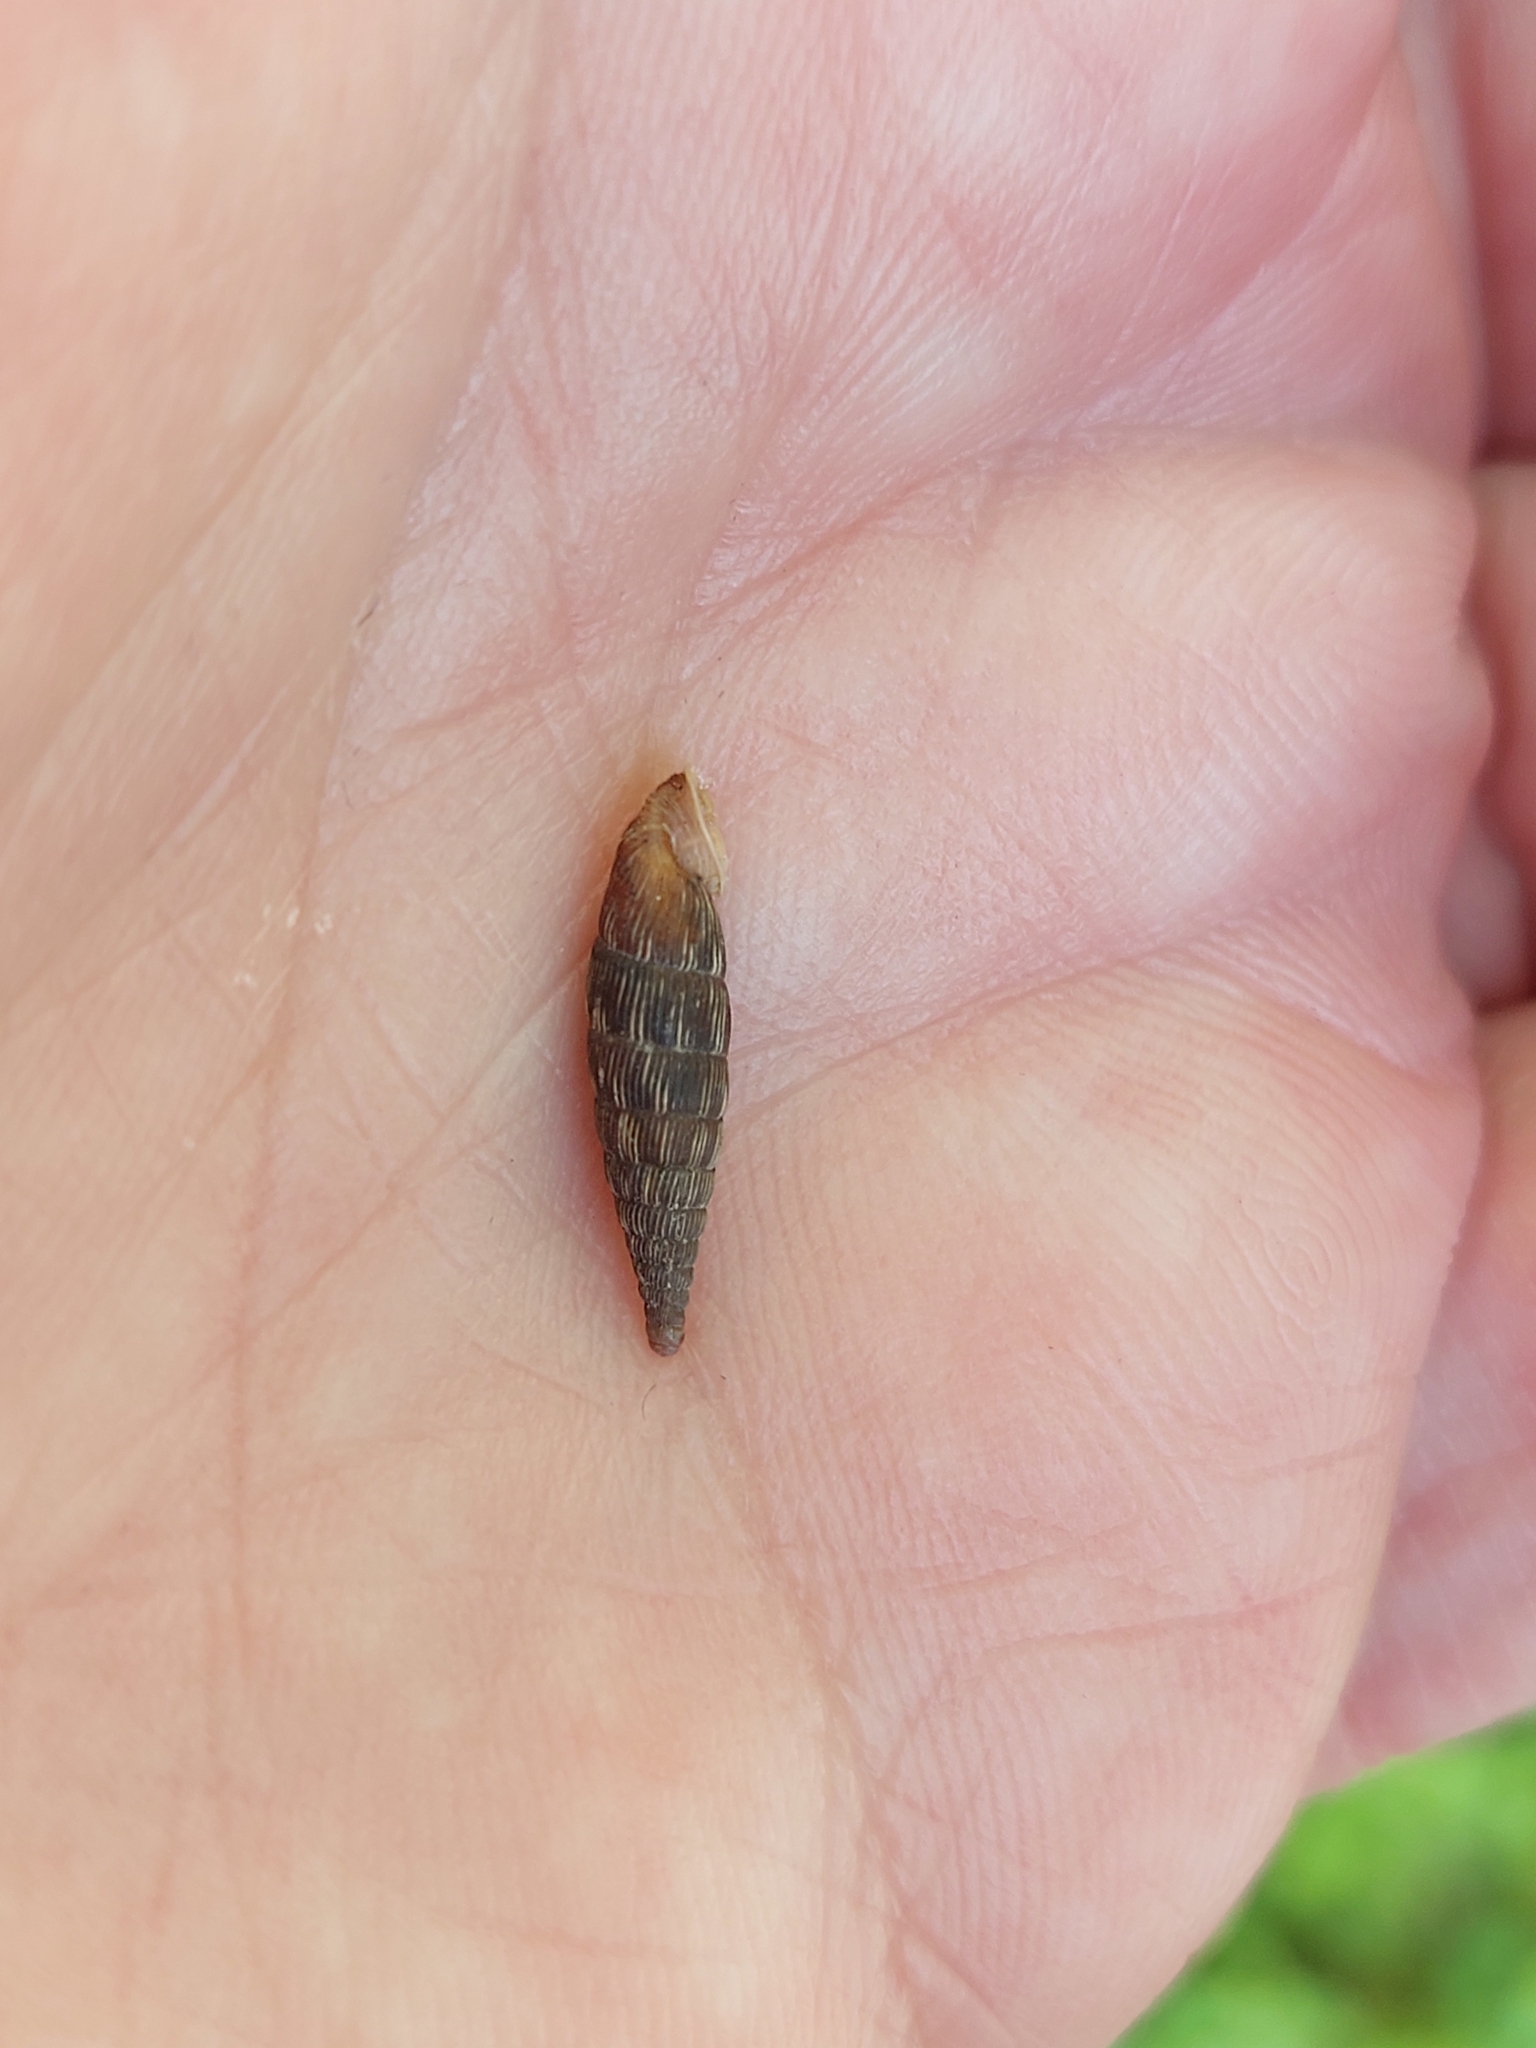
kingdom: Animalia
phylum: Mollusca
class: Gastropoda
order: Stylommatophora
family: Clausiliidae
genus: Laciniaria
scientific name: Laciniaria plicata
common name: Single-lipped door snail
